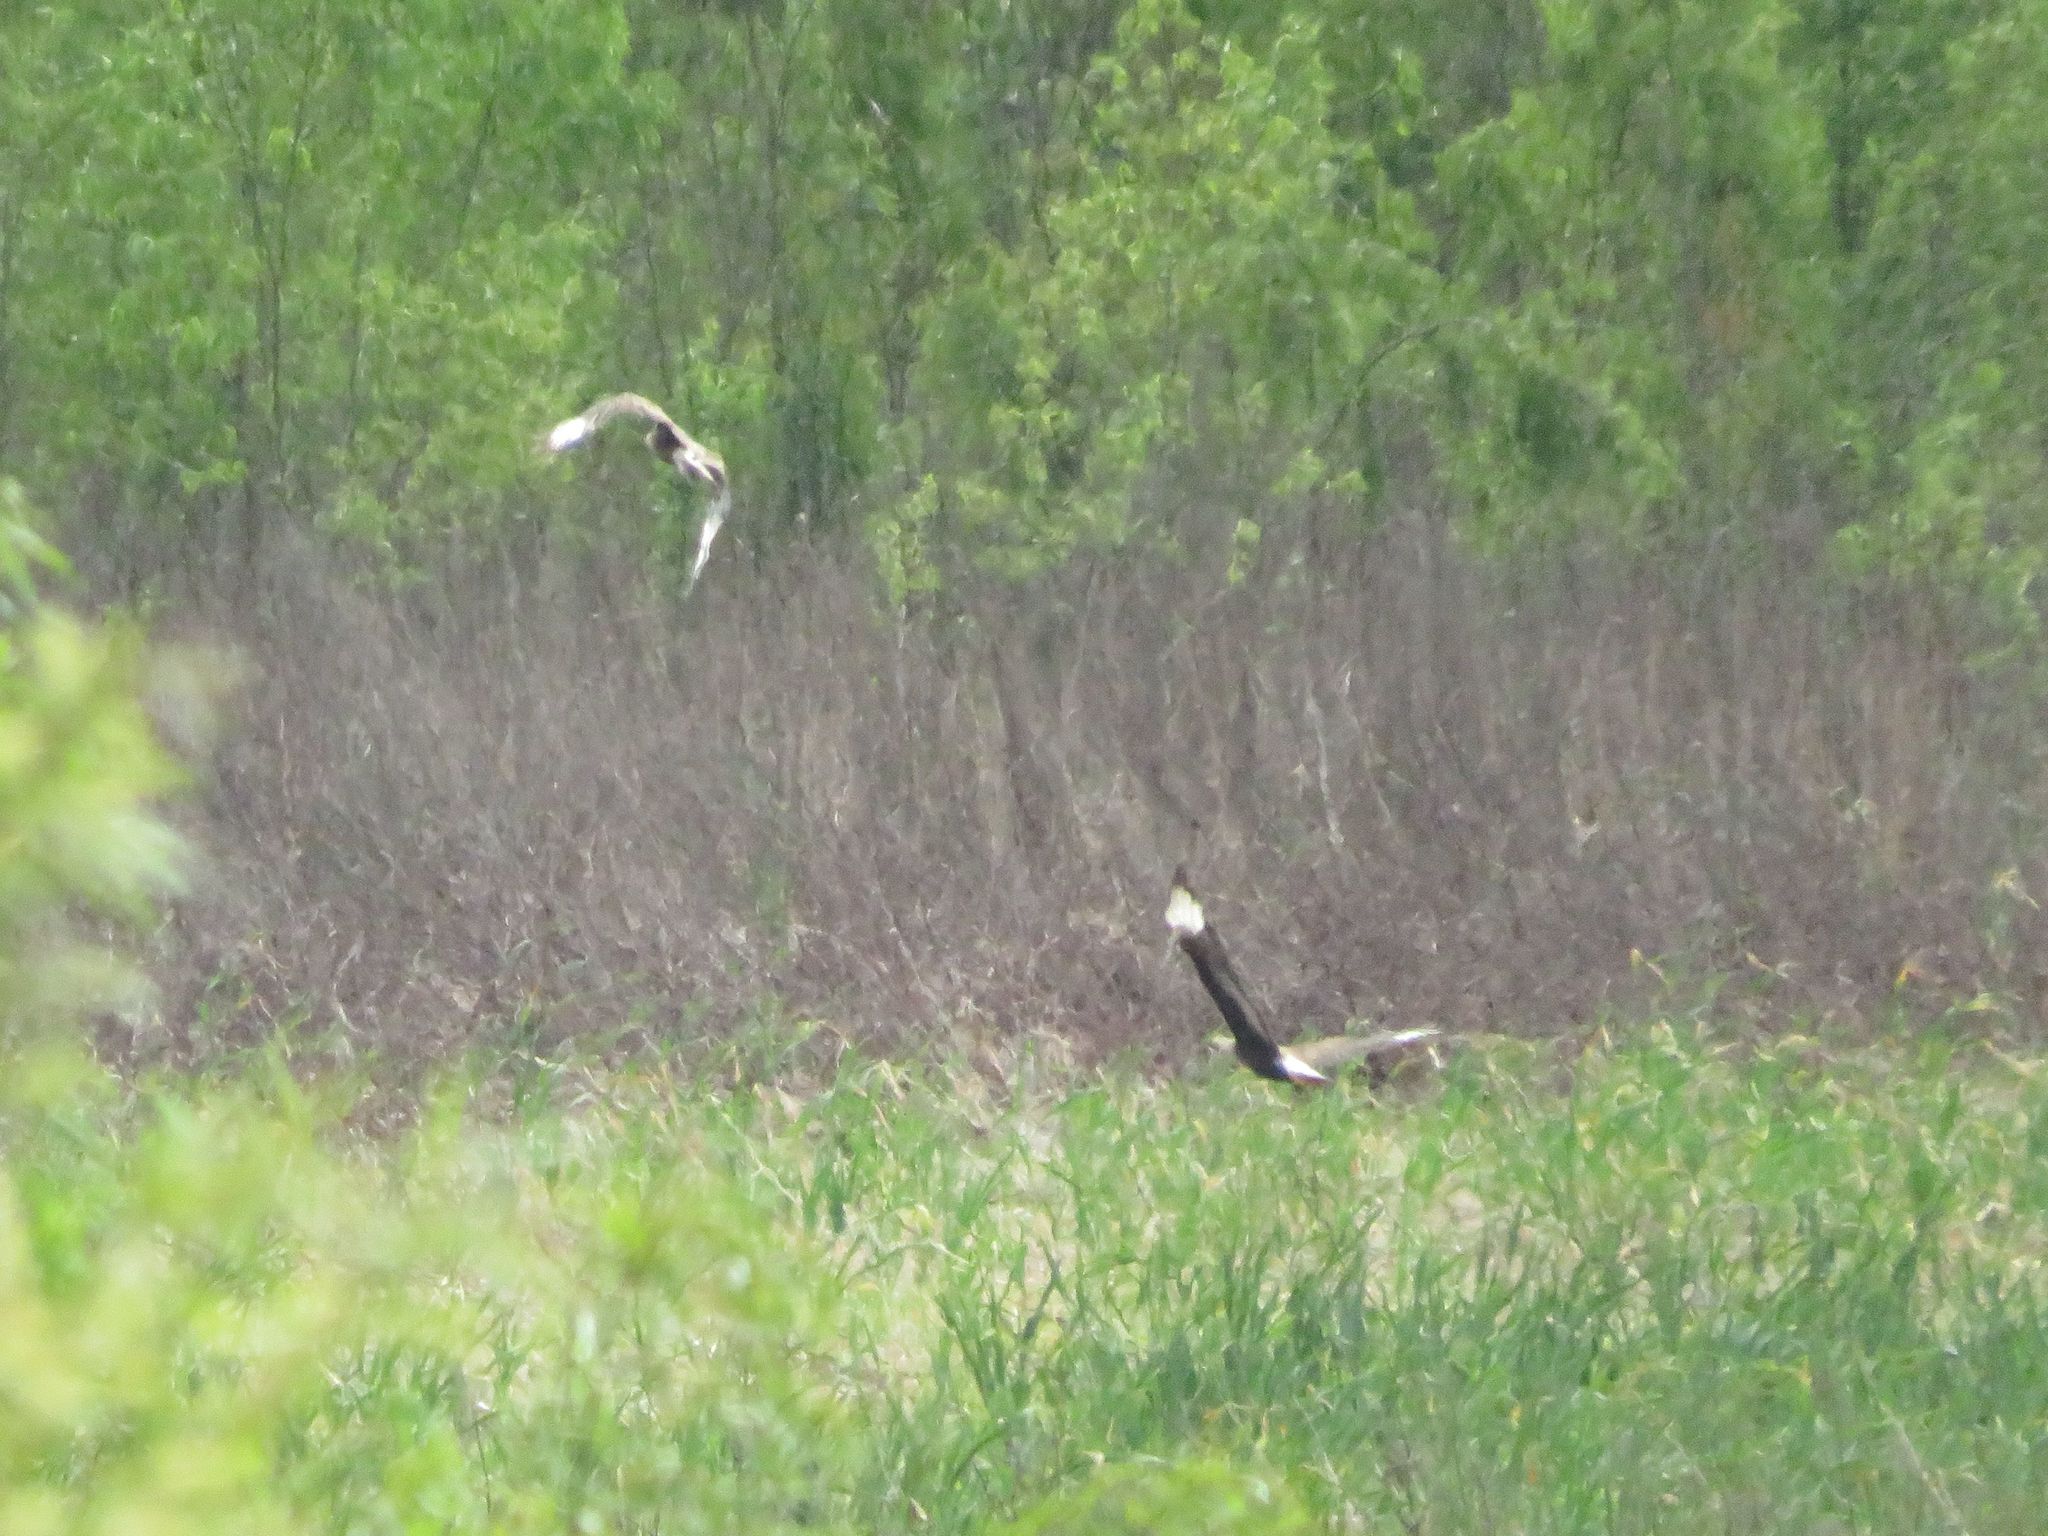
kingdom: Animalia
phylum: Chordata
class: Aves
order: Falconiformes
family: Falconidae
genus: Caracara
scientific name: Caracara plancus
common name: Southern caracara
